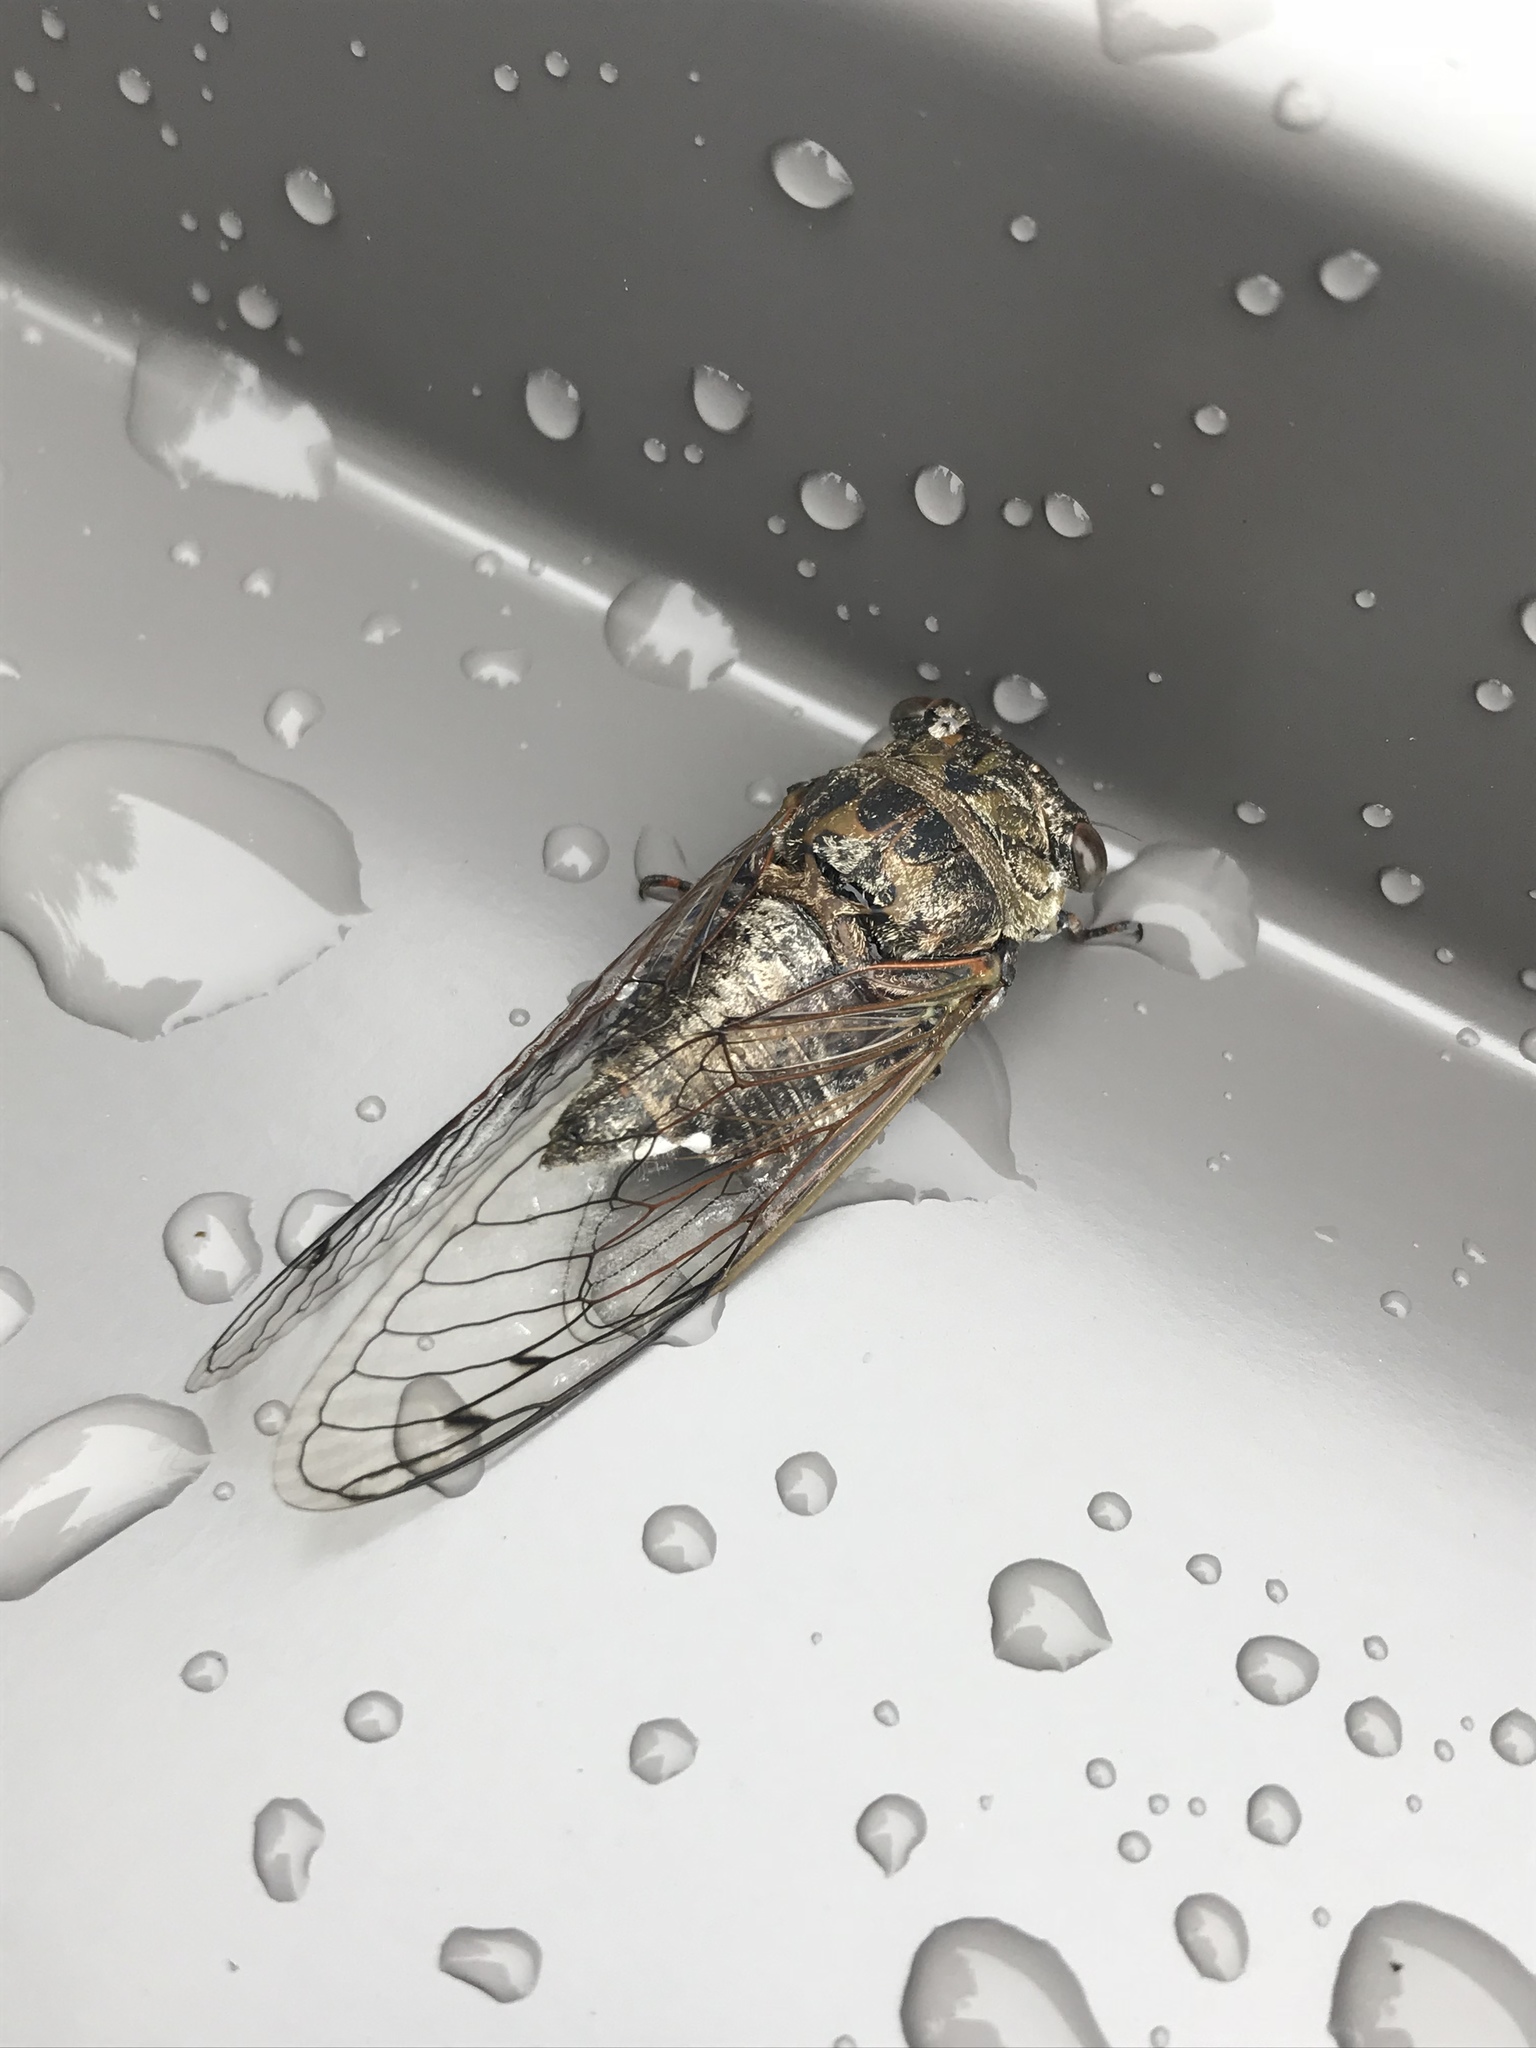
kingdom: Animalia
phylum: Arthropoda
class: Insecta
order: Hemiptera
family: Cicadidae
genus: Neotibicen
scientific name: Neotibicen canicularis
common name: God-day cicada
